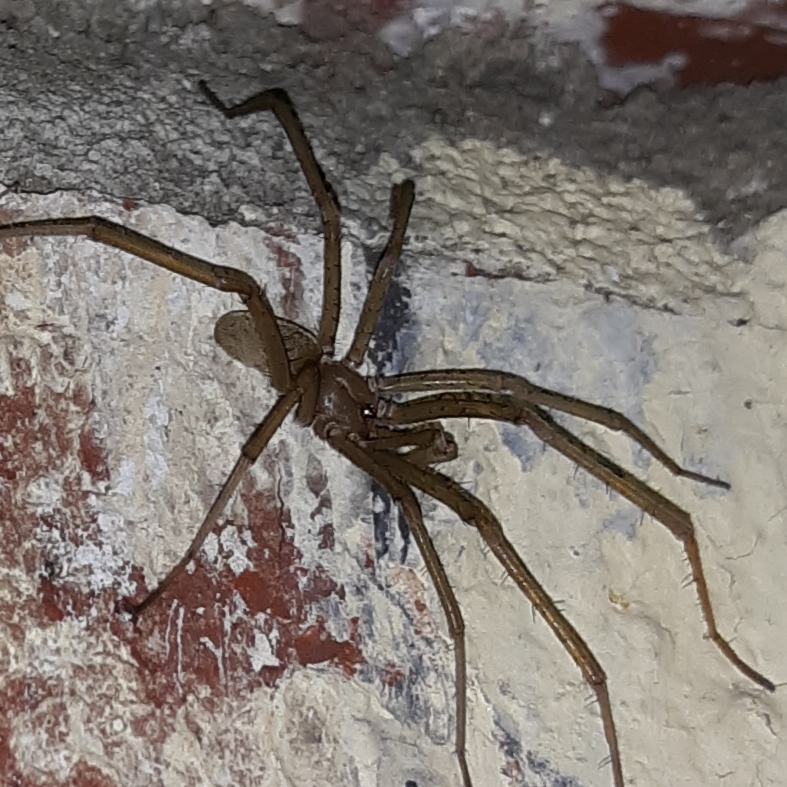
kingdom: Animalia
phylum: Arthropoda
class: Arachnida
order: Araneae
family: Filistatidae
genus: Kukulcania
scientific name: Kukulcania hibernalis
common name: Crevice weaver
